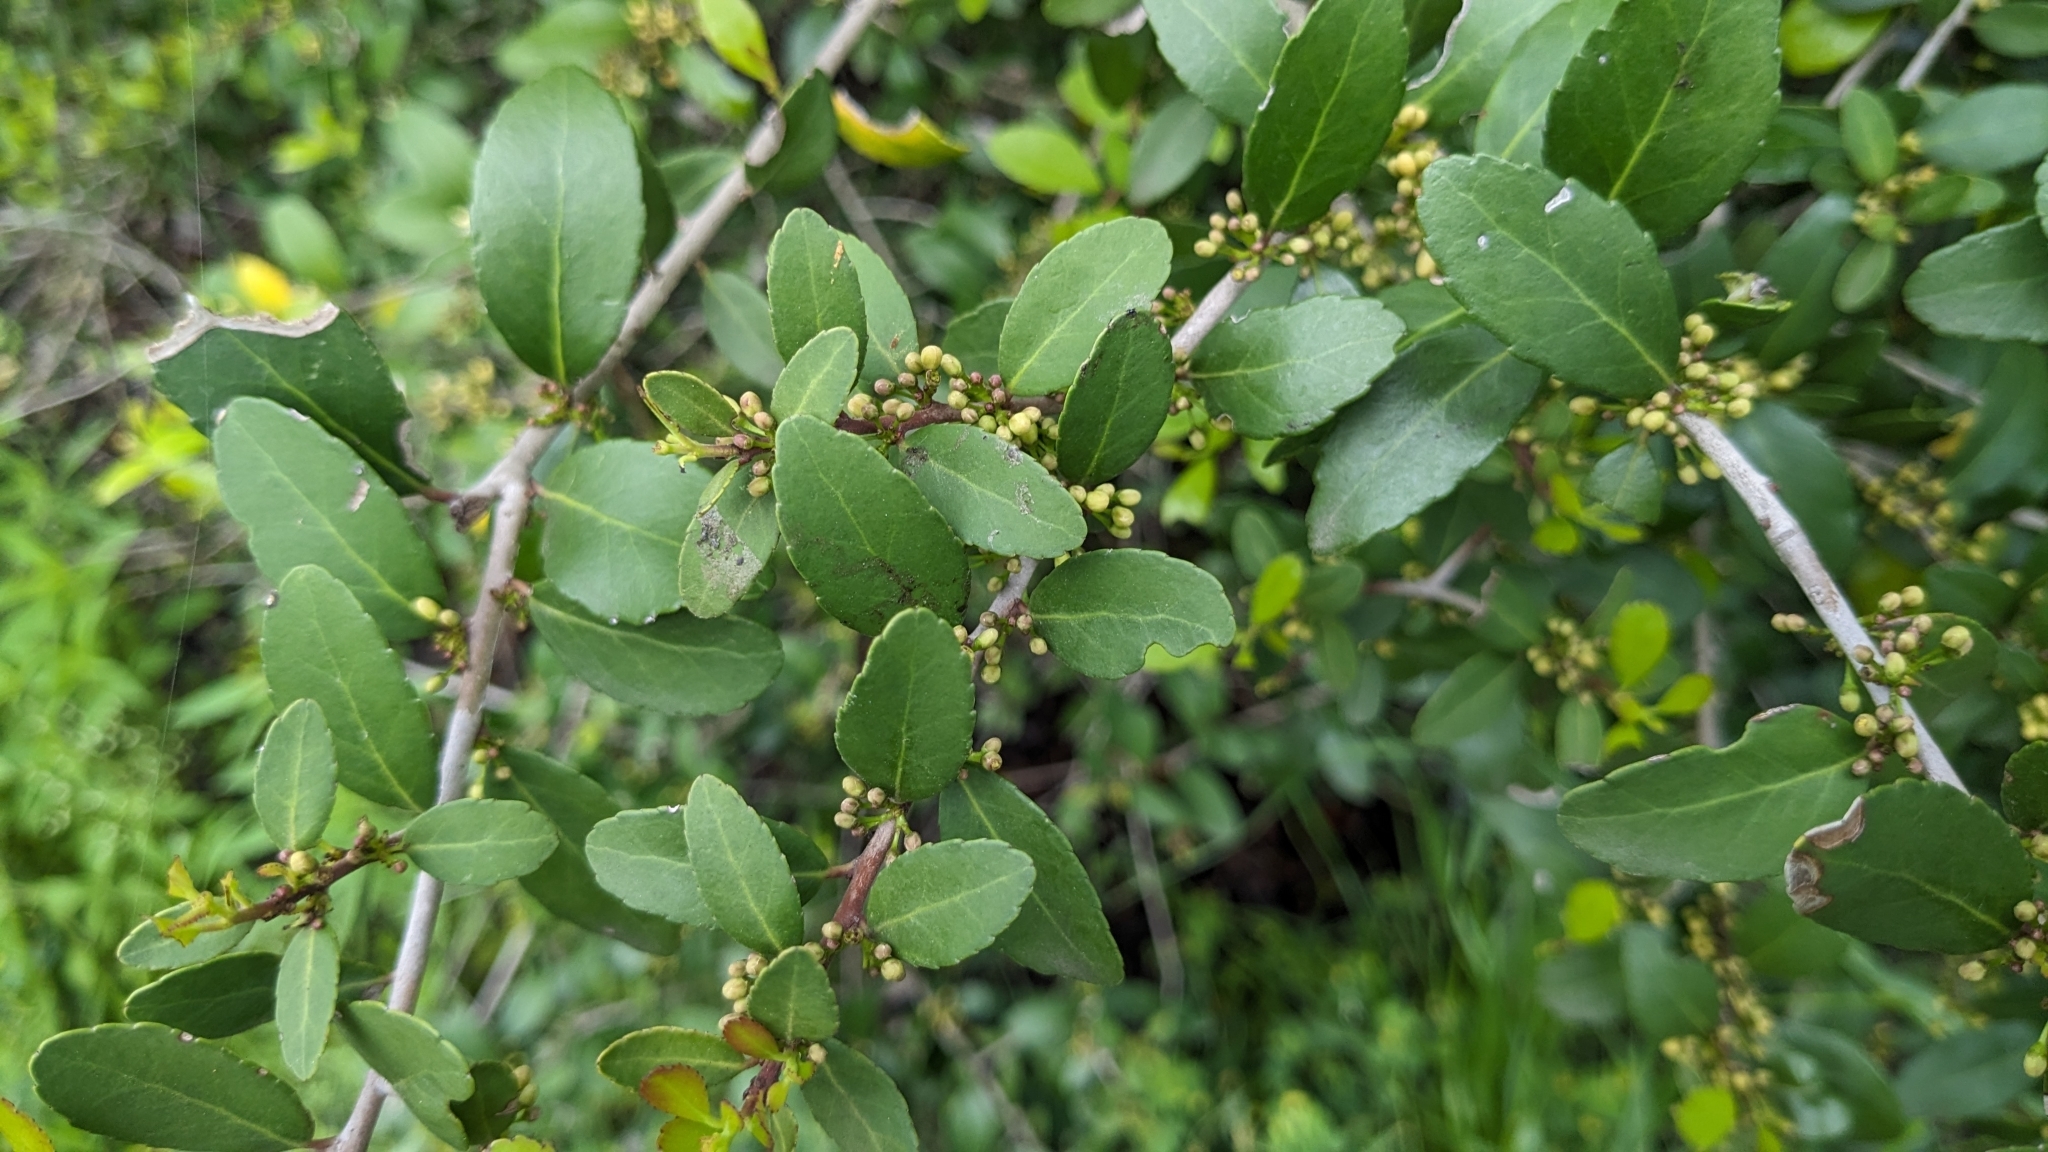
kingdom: Plantae
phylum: Tracheophyta
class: Magnoliopsida
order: Aquifoliales
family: Aquifoliaceae
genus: Ilex
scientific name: Ilex vomitoria
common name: Yaupon holly
